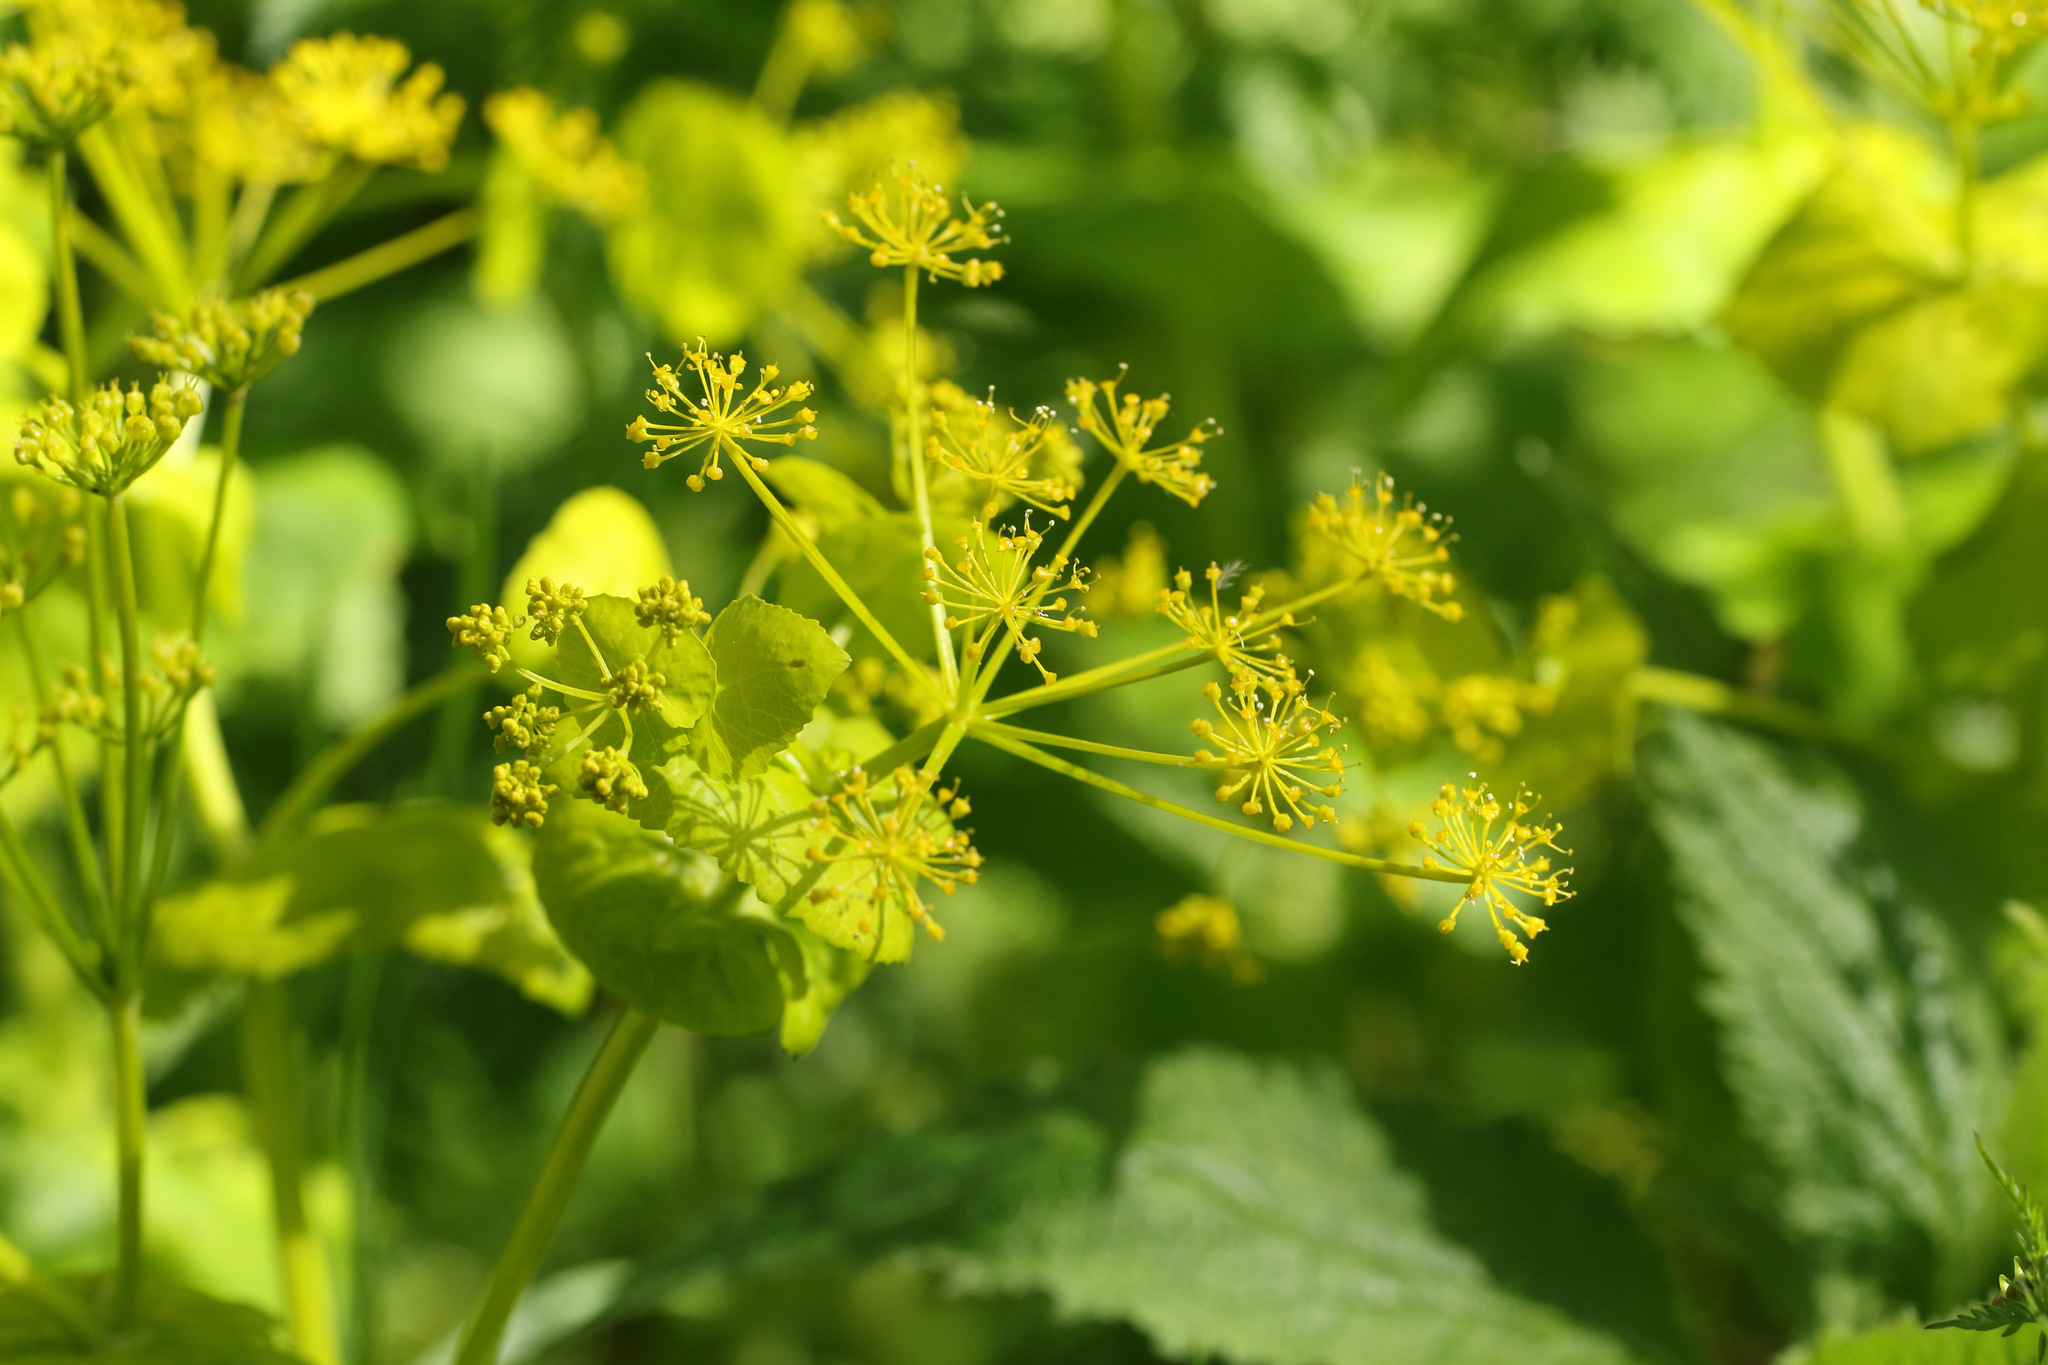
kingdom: Plantae
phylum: Tracheophyta
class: Magnoliopsida
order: Apiales
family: Apiaceae
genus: Smyrnium
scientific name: Smyrnium perfoliatum
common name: Perfoliate alexanders
